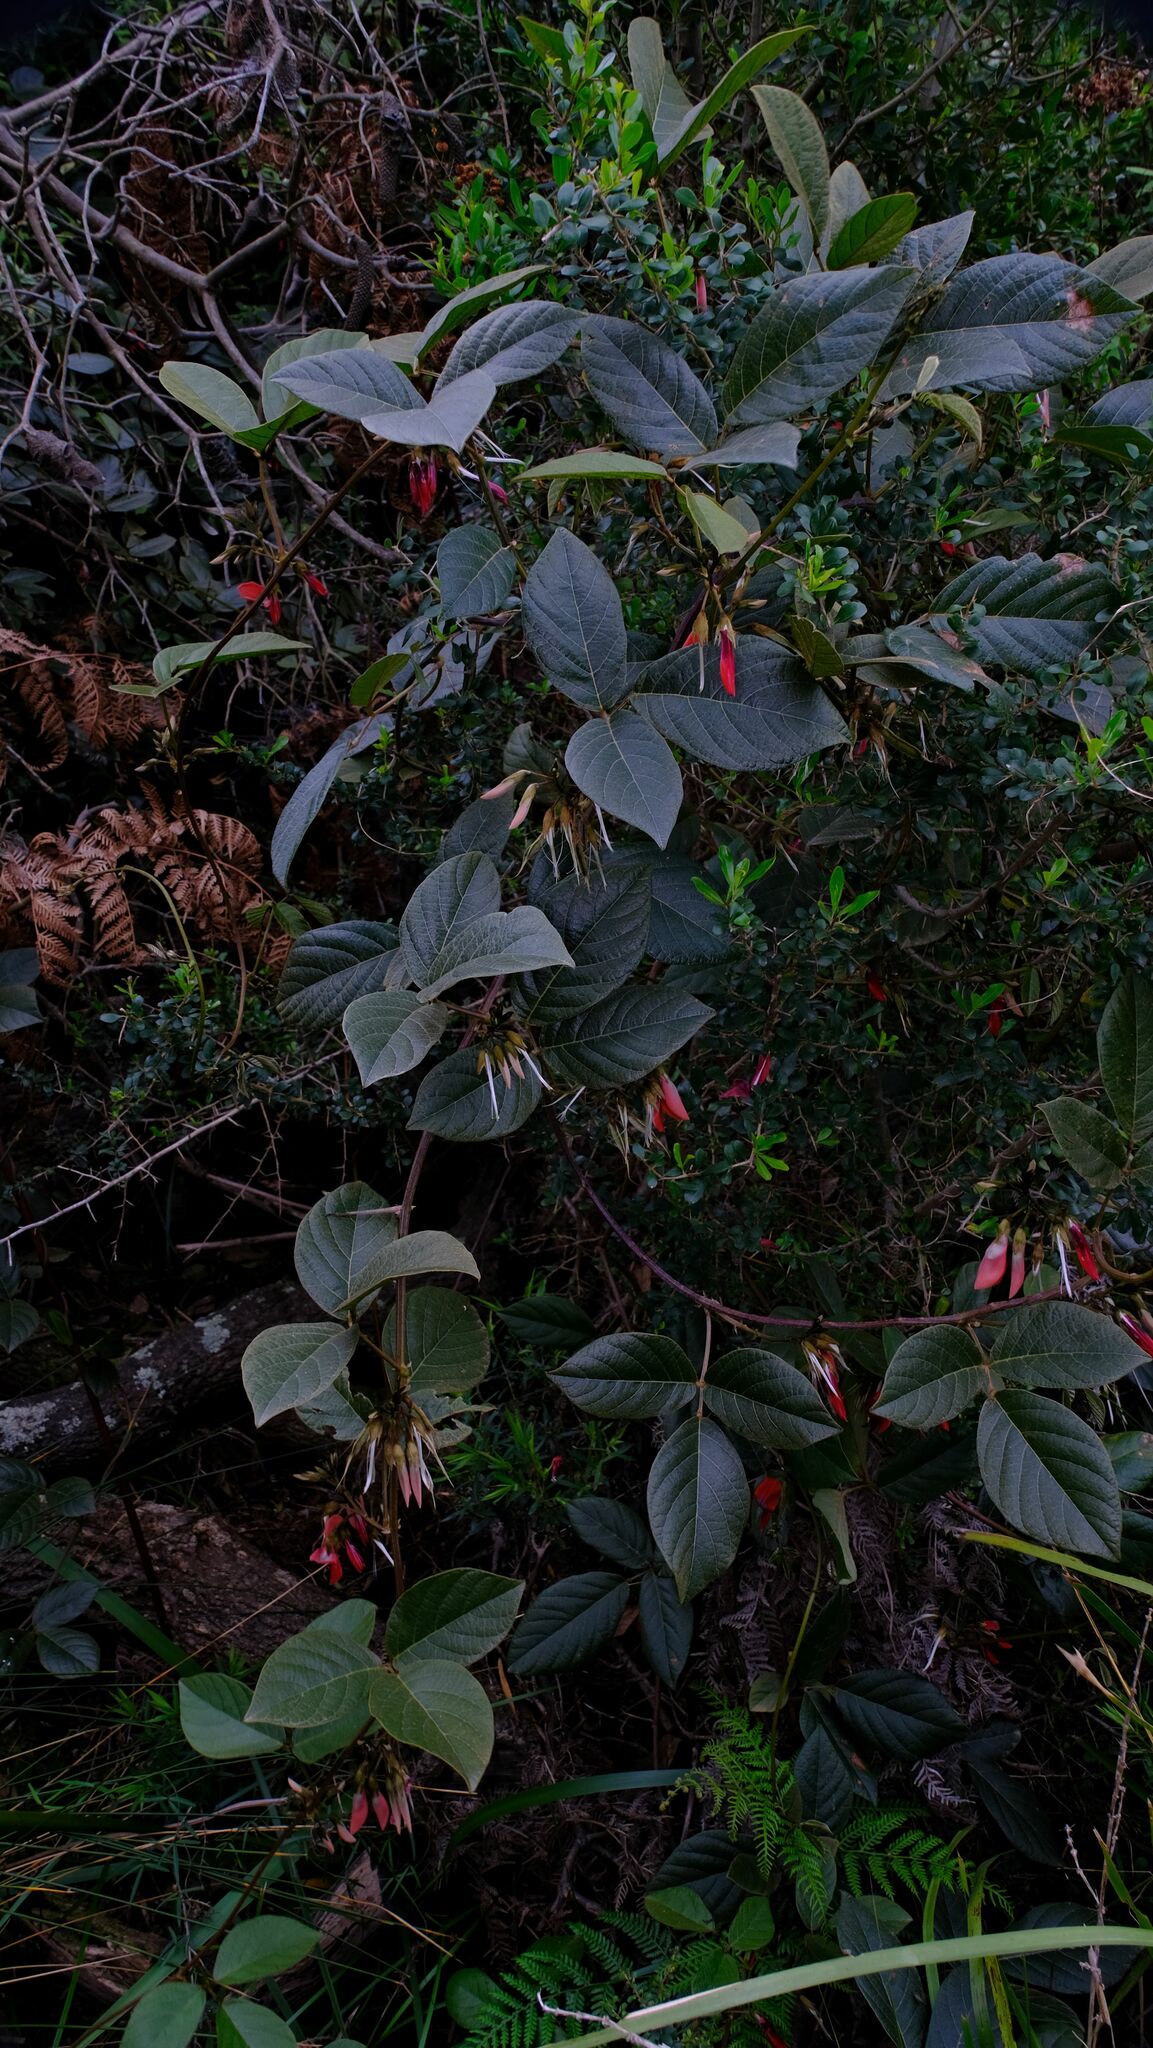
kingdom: Plantae
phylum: Tracheophyta
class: Magnoliopsida
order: Fabales
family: Fabaceae
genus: Kennedia
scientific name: Kennedia rubicunda
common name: Red kennedy-pea
